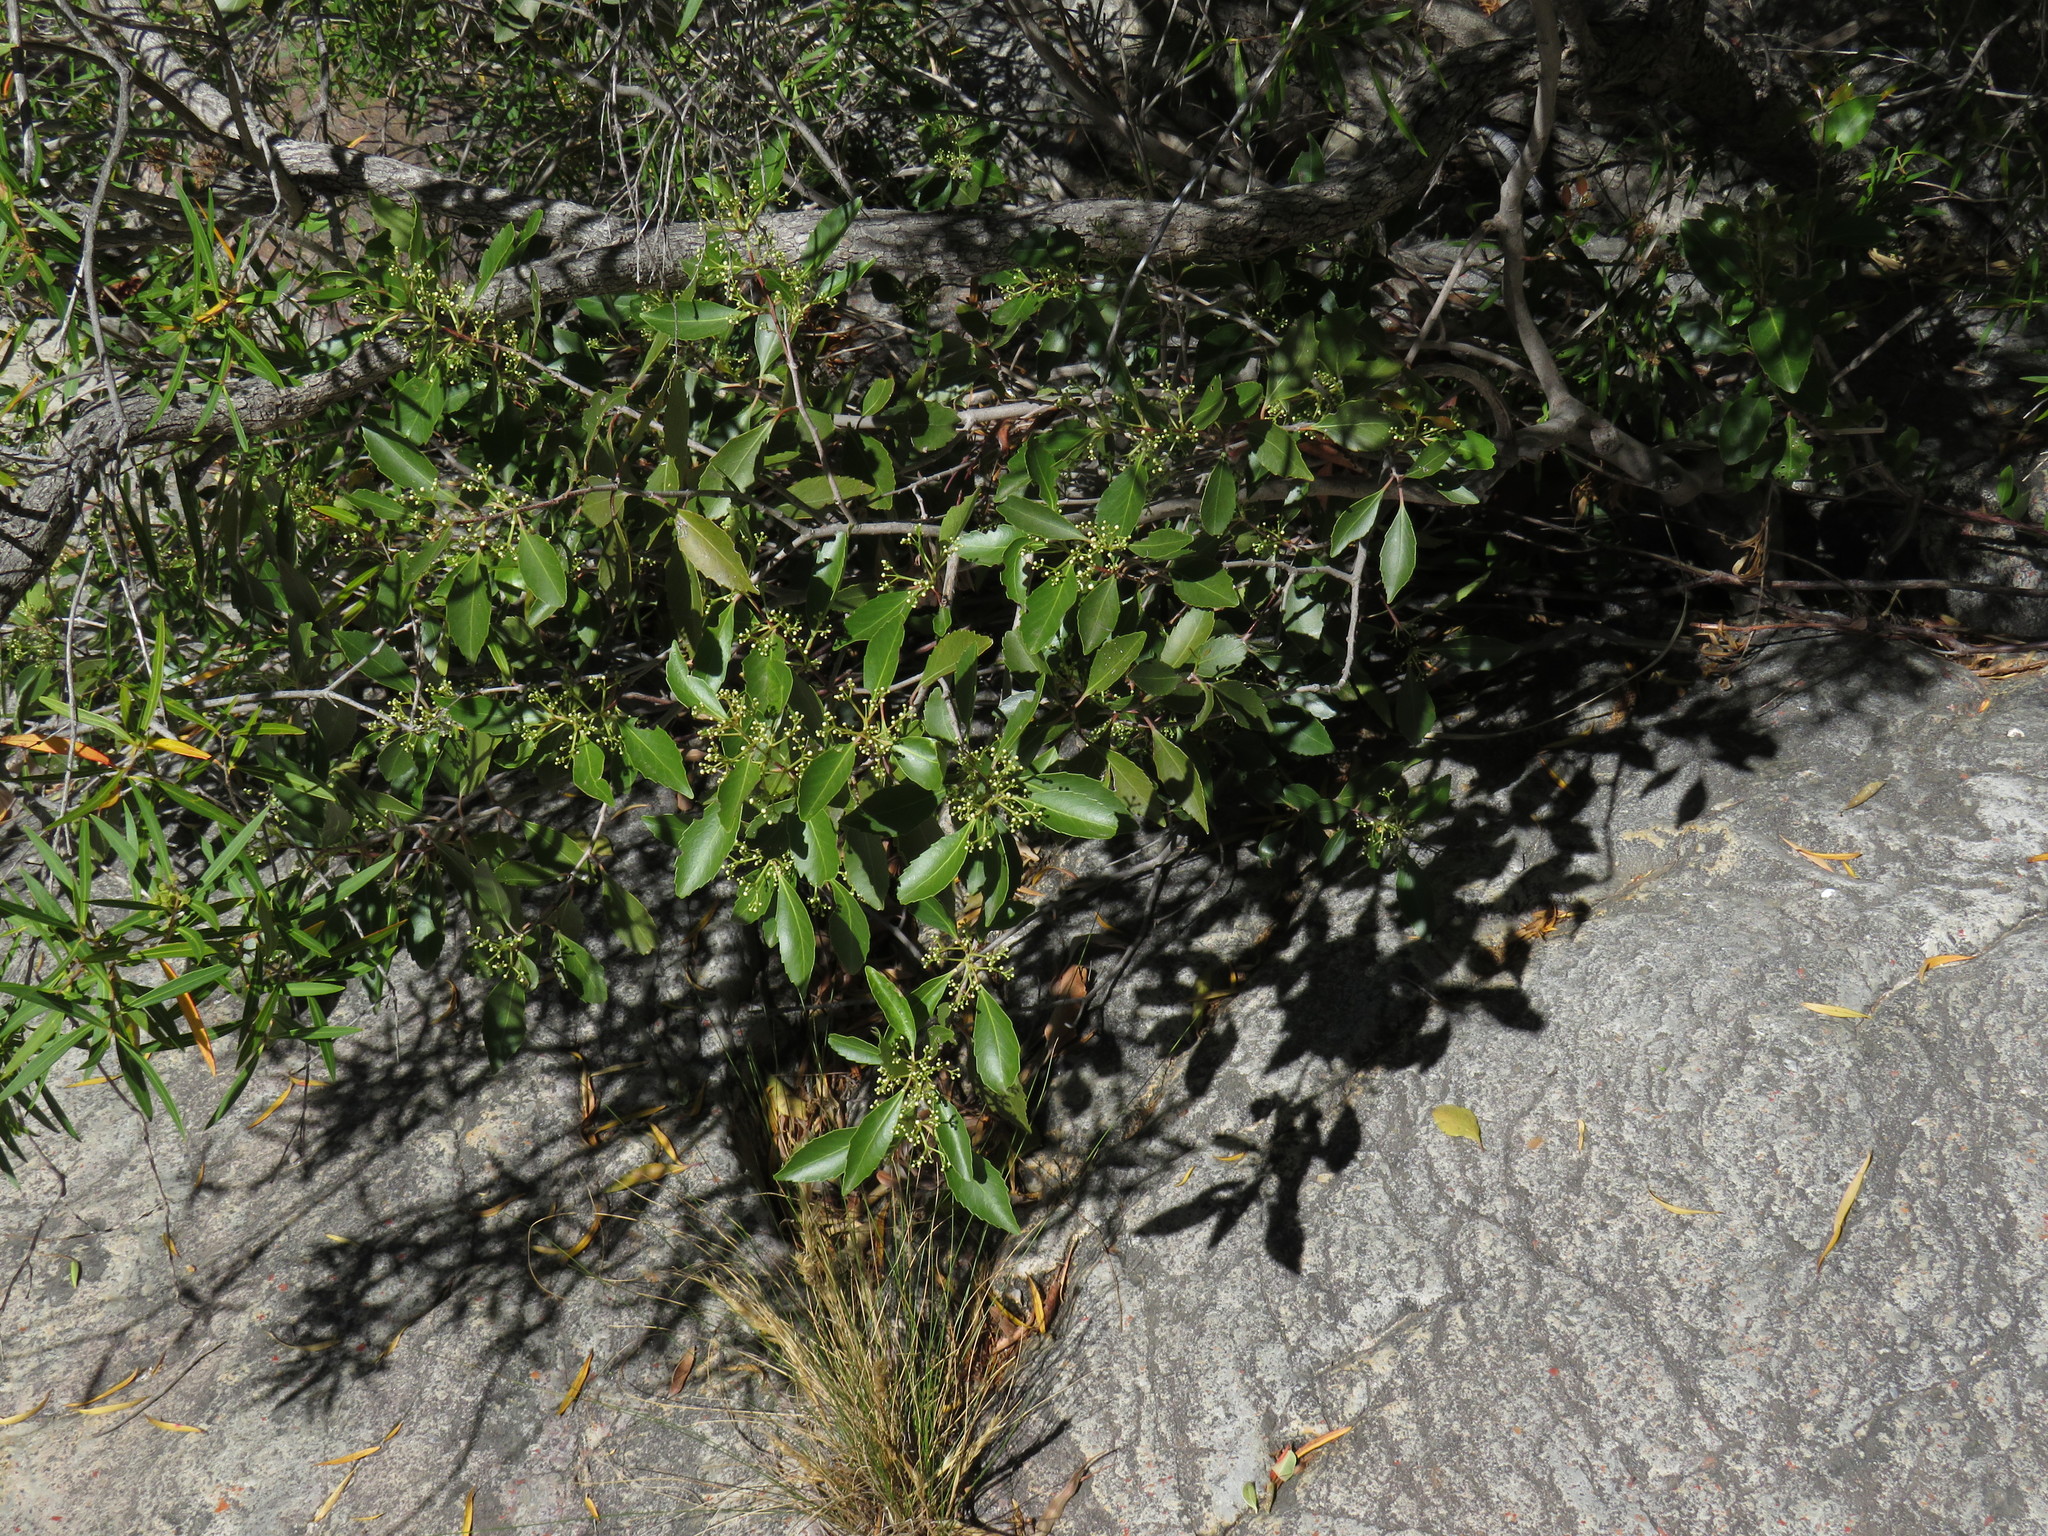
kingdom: Plantae
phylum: Tracheophyta
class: Magnoliopsida
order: Celastrales
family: Celastraceae
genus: Cassine
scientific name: Cassine peragua
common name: Cape saffron
